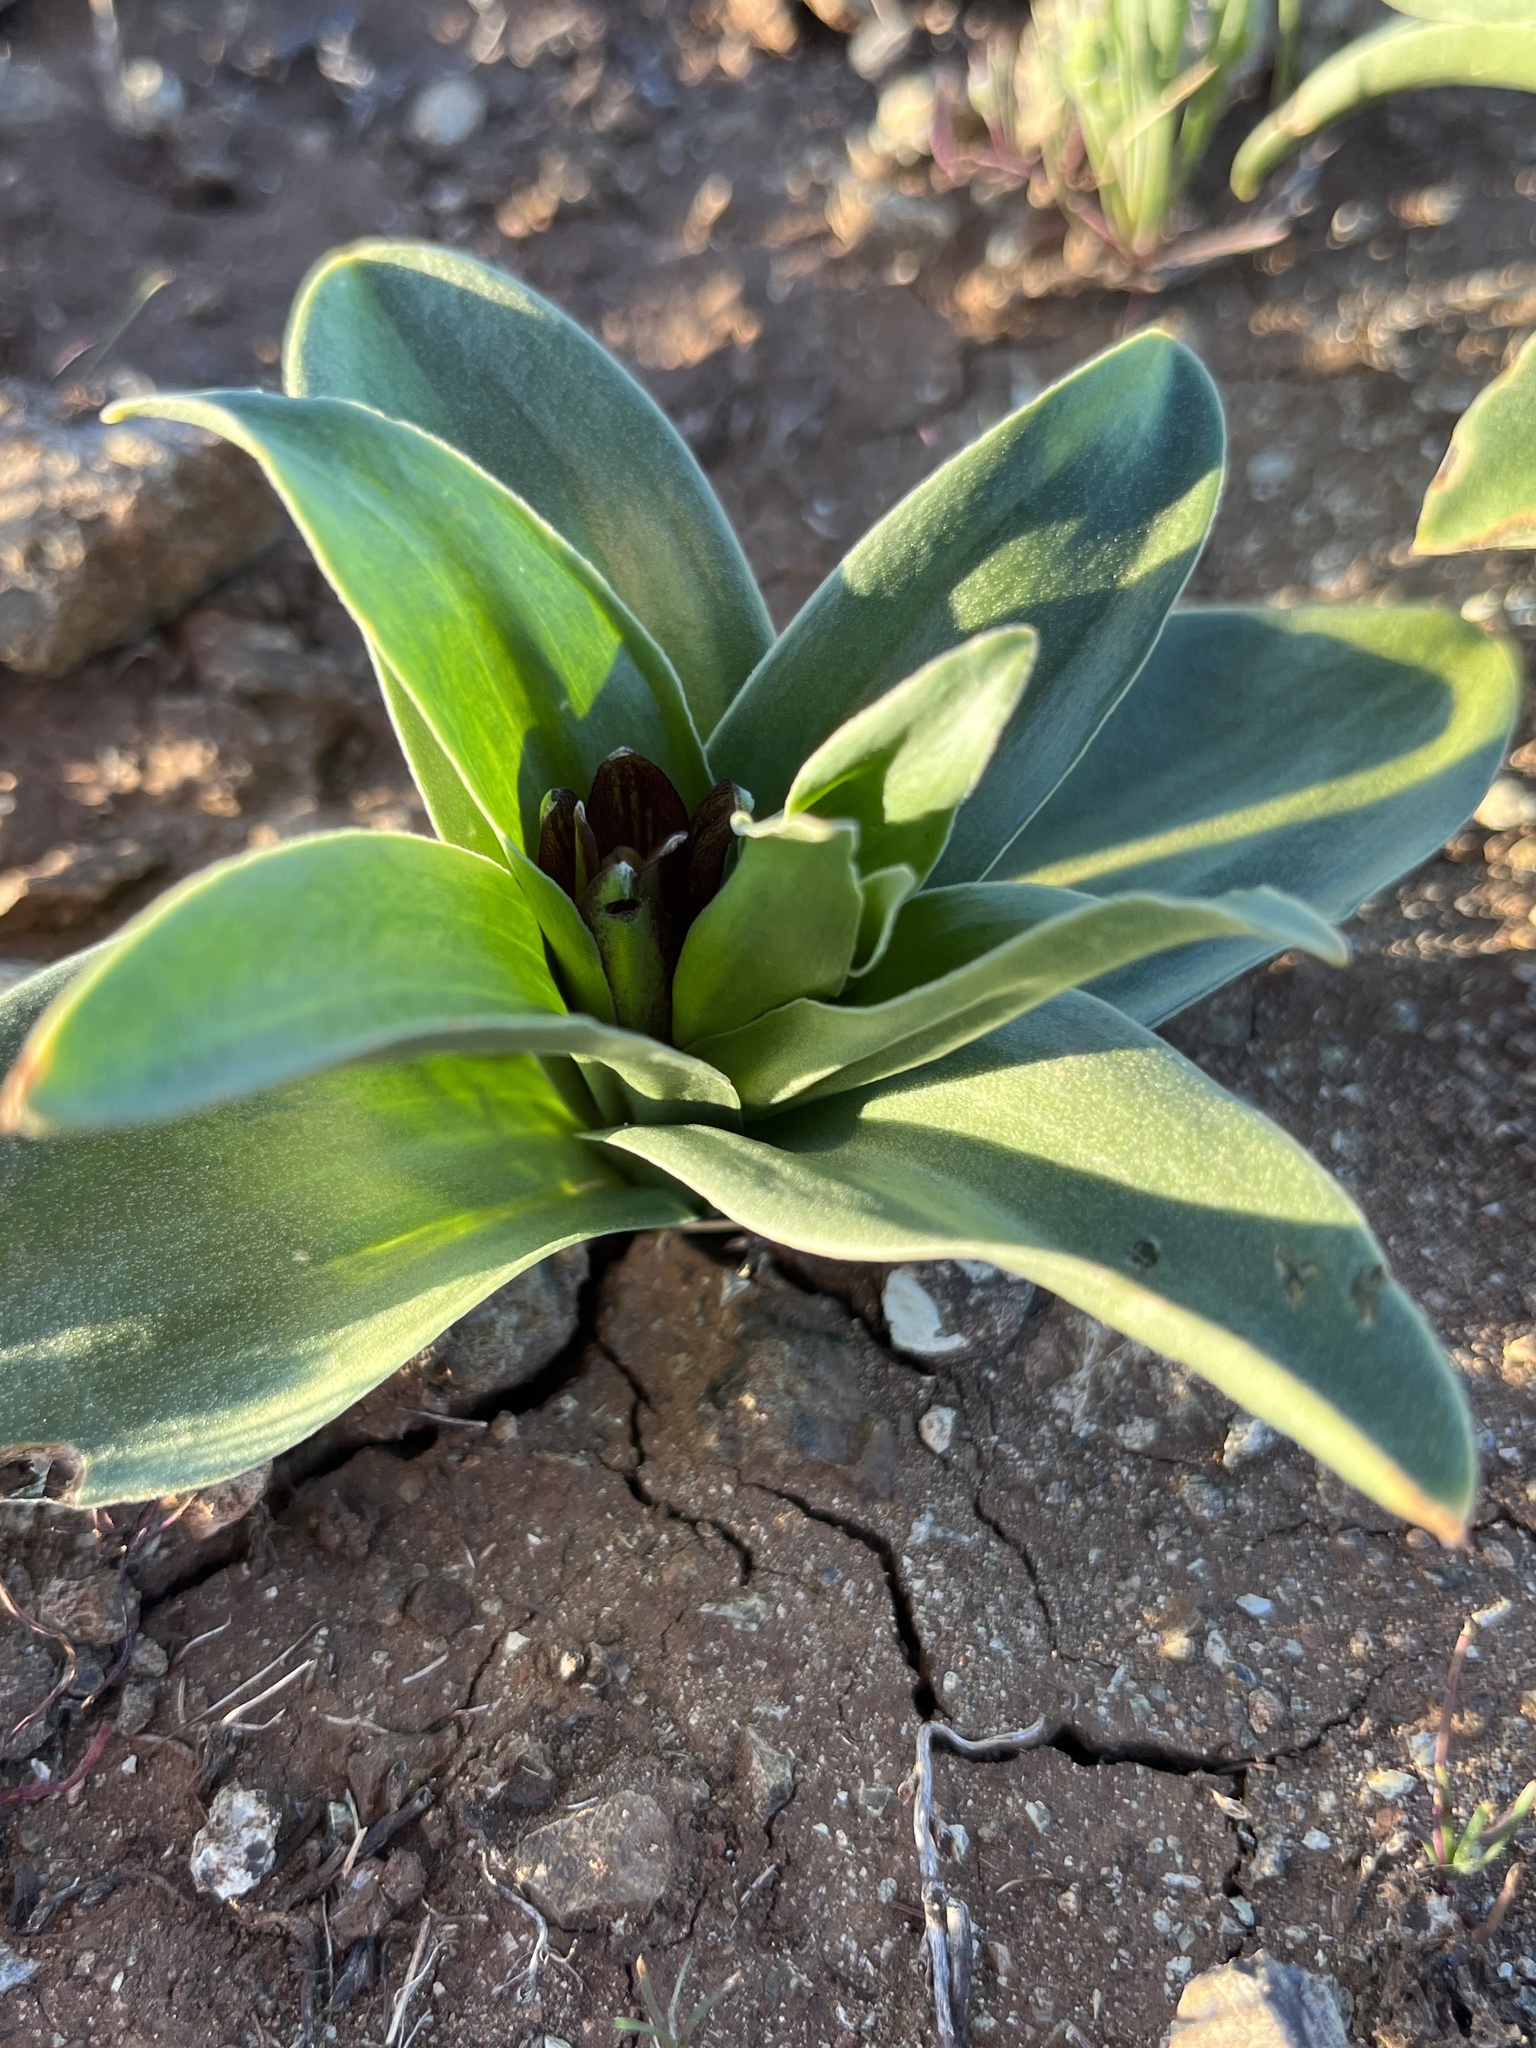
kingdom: Plantae
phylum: Tracheophyta
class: Liliopsida
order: Liliales
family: Liliaceae
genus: Fritillaria
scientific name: Fritillaria biflora
